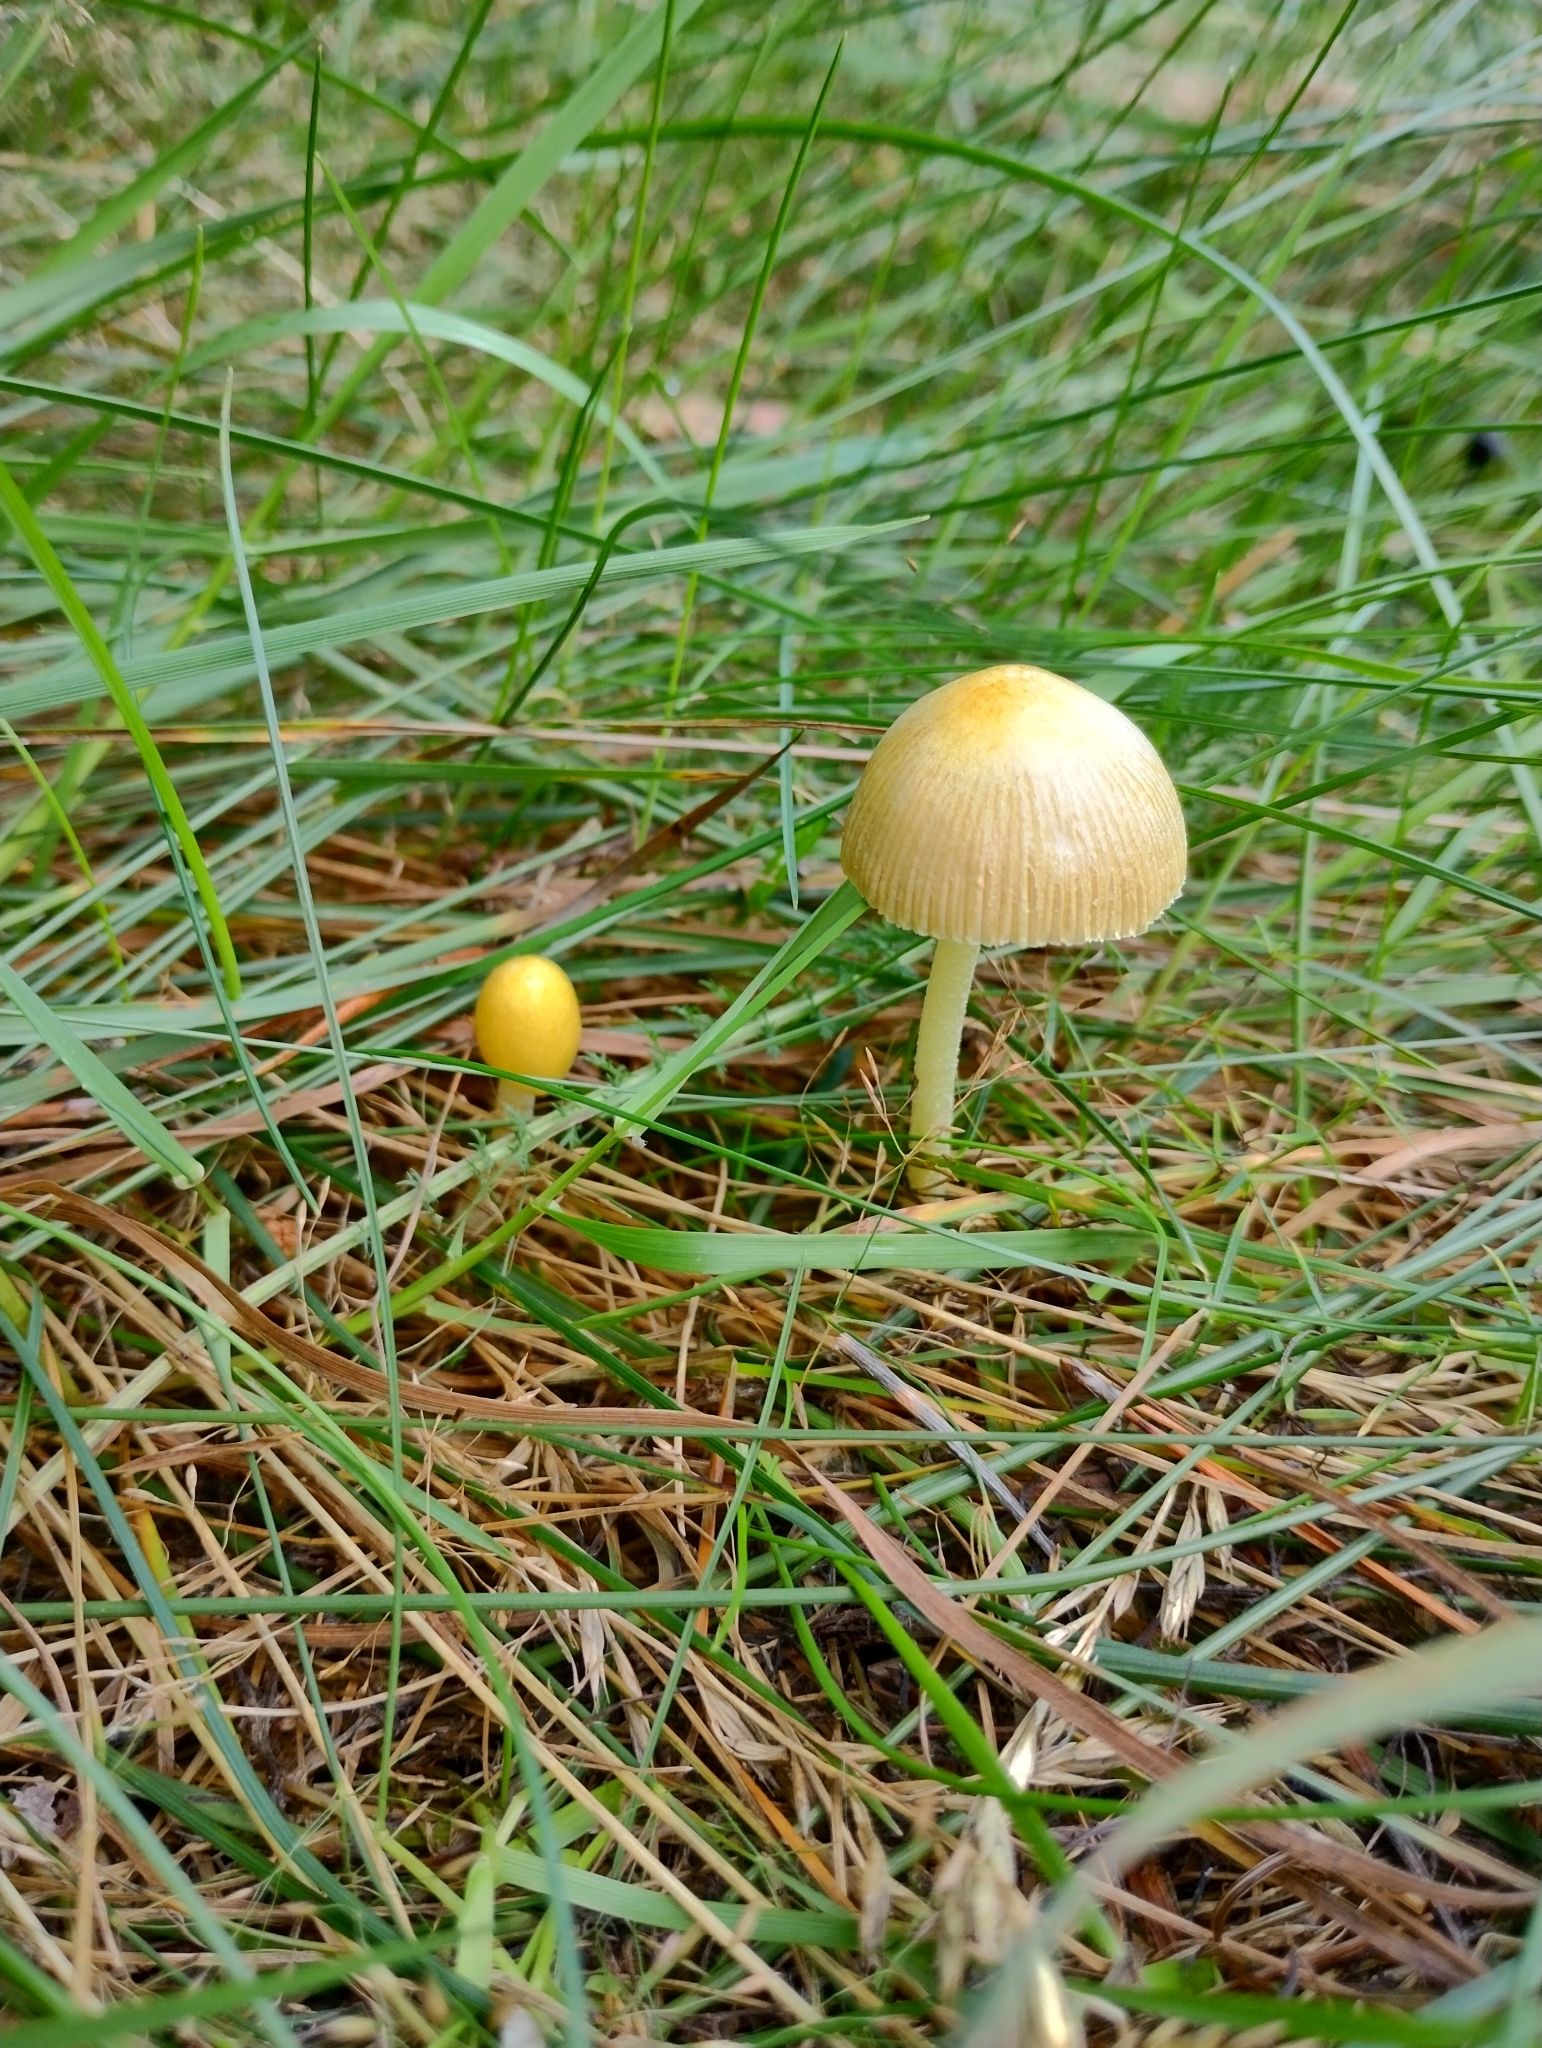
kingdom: Fungi
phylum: Basidiomycota
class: Agaricomycetes
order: Agaricales
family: Bolbitiaceae
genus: Bolbitius
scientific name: Bolbitius titubans
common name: Yellow fieldcap
